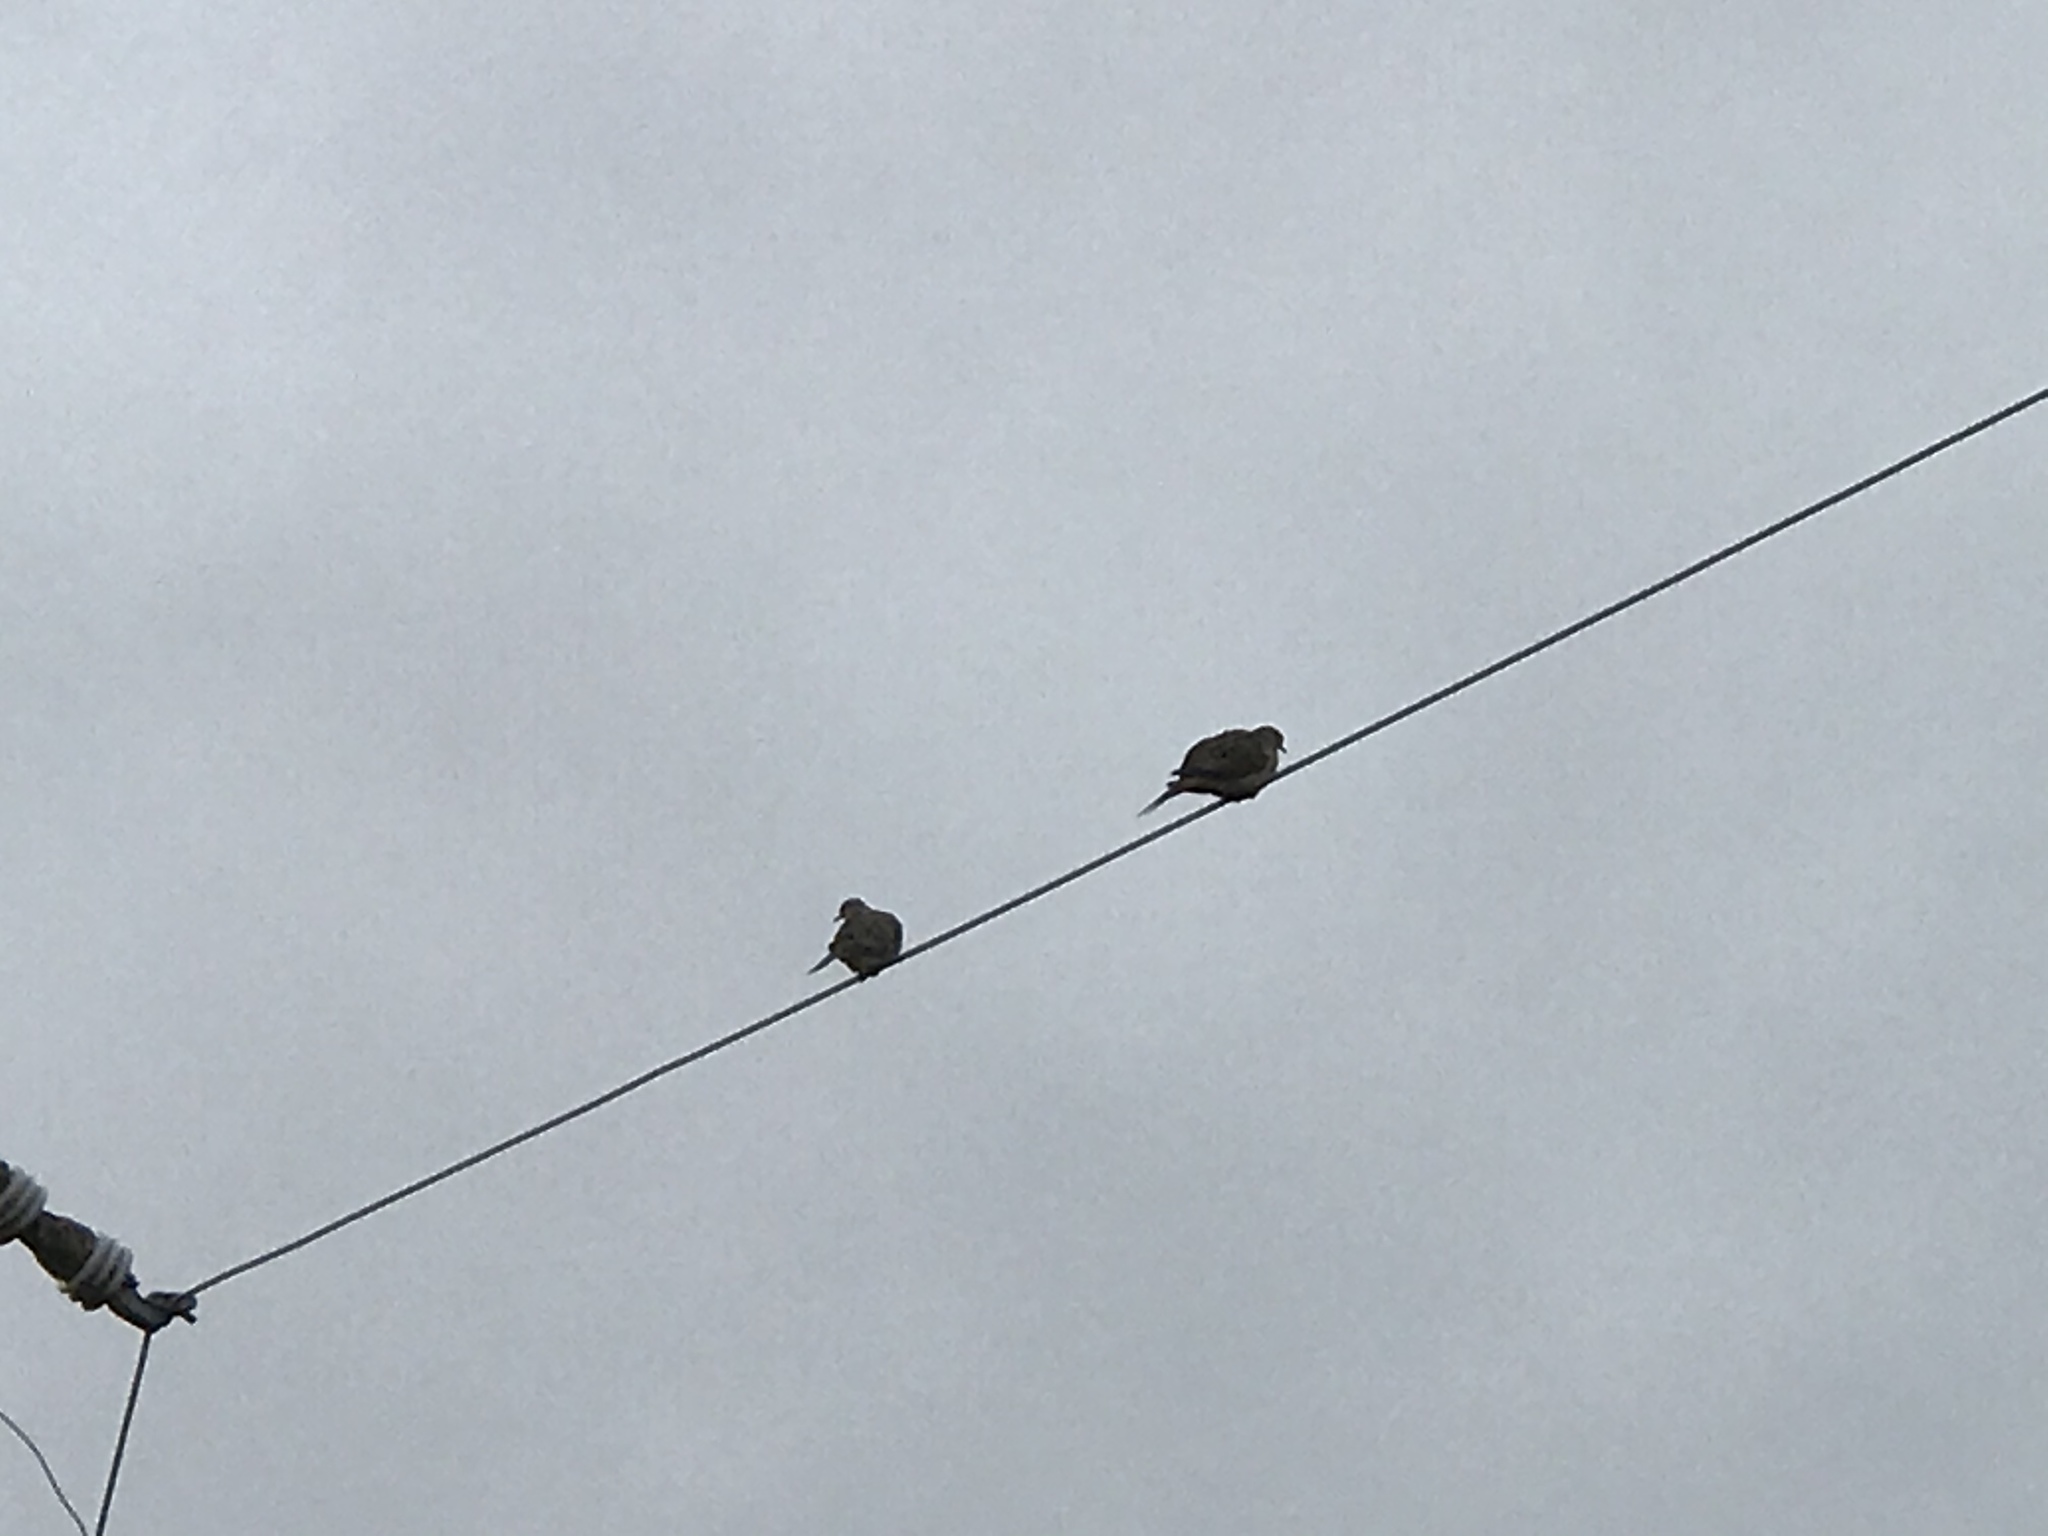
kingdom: Animalia
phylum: Chordata
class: Aves
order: Columbiformes
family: Columbidae
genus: Zenaida
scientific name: Zenaida macroura
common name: Mourning dove
